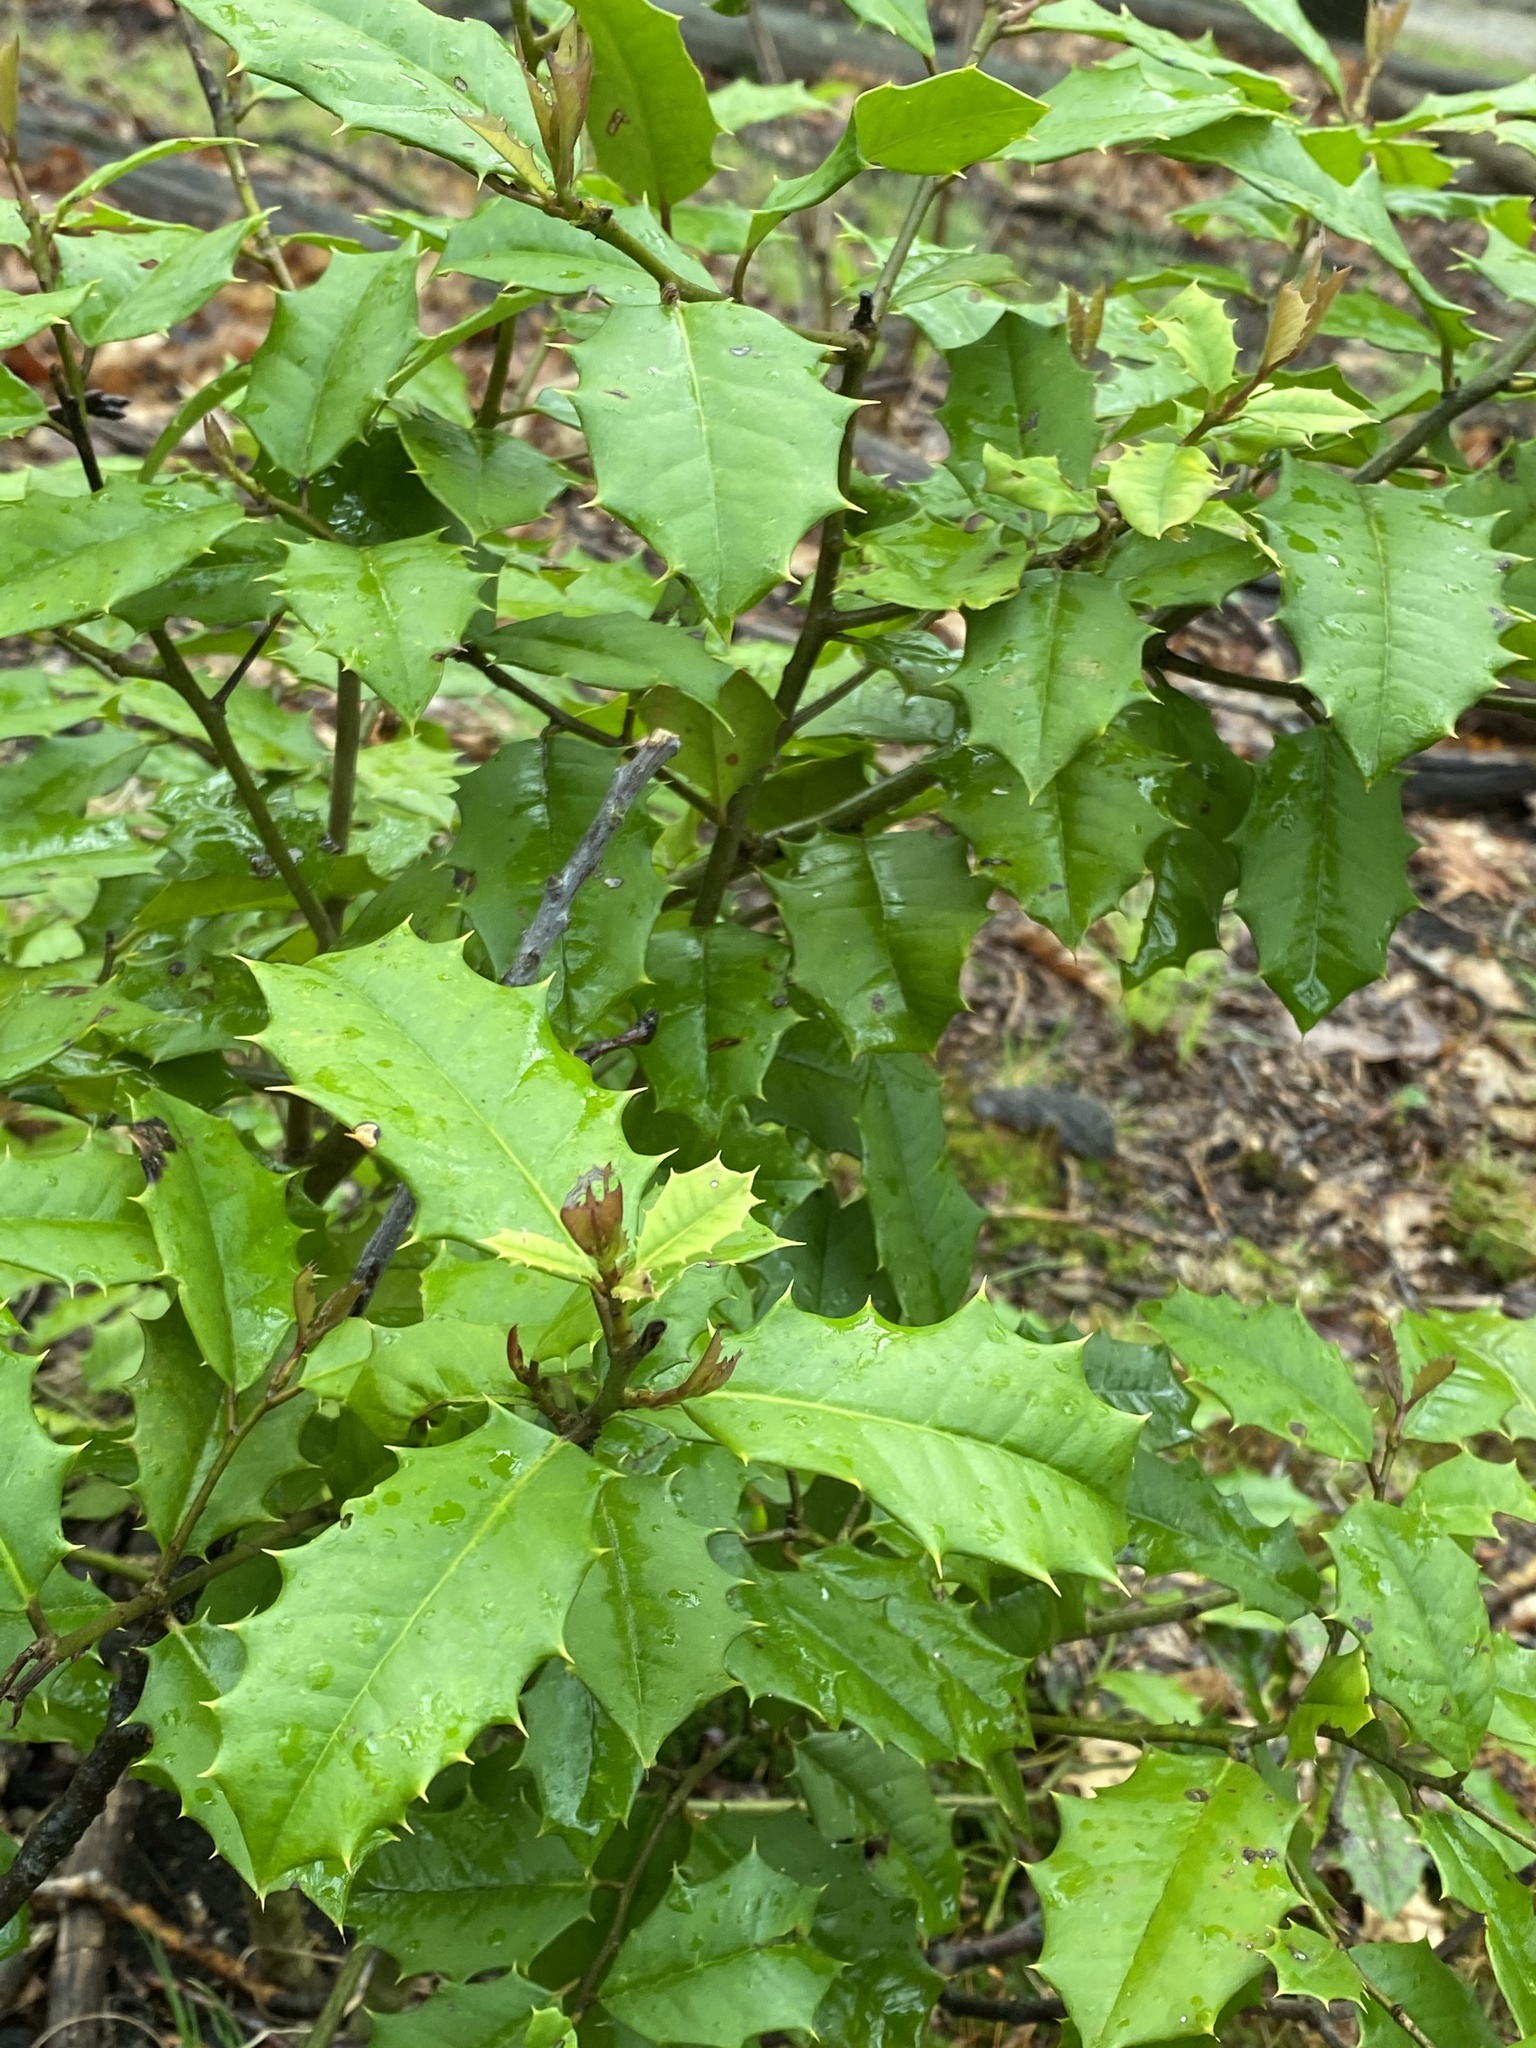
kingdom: Plantae
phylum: Tracheophyta
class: Magnoliopsida
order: Aquifoliales
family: Aquifoliaceae
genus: Ilex
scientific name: Ilex opaca
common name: American holly
